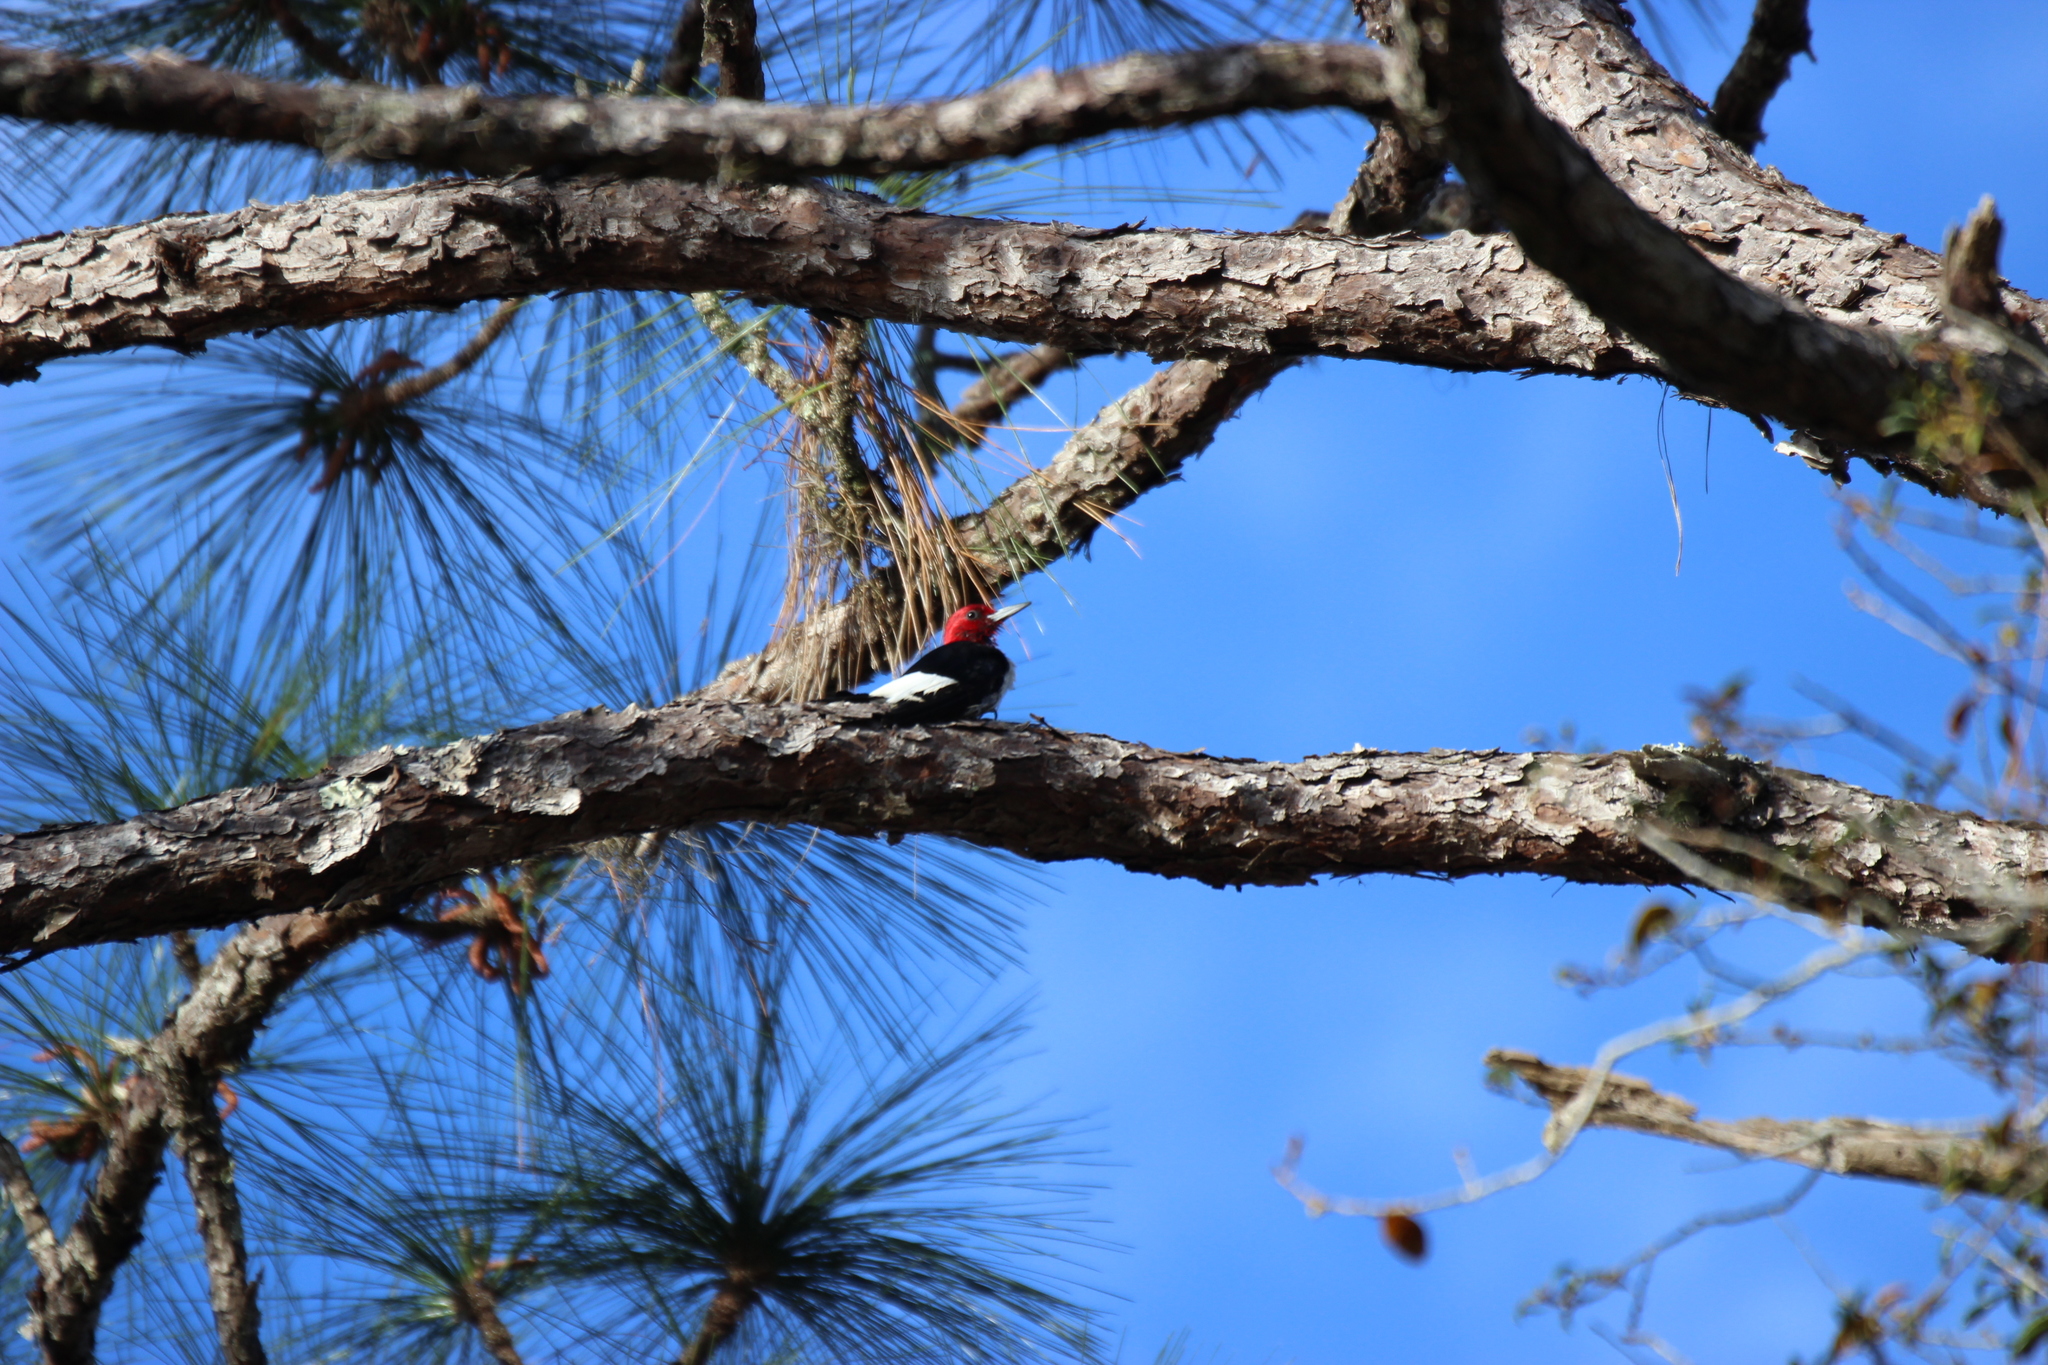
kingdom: Animalia
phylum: Chordata
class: Aves
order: Piciformes
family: Picidae
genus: Melanerpes
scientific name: Melanerpes erythrocephalus
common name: Red-headed woodpecker
